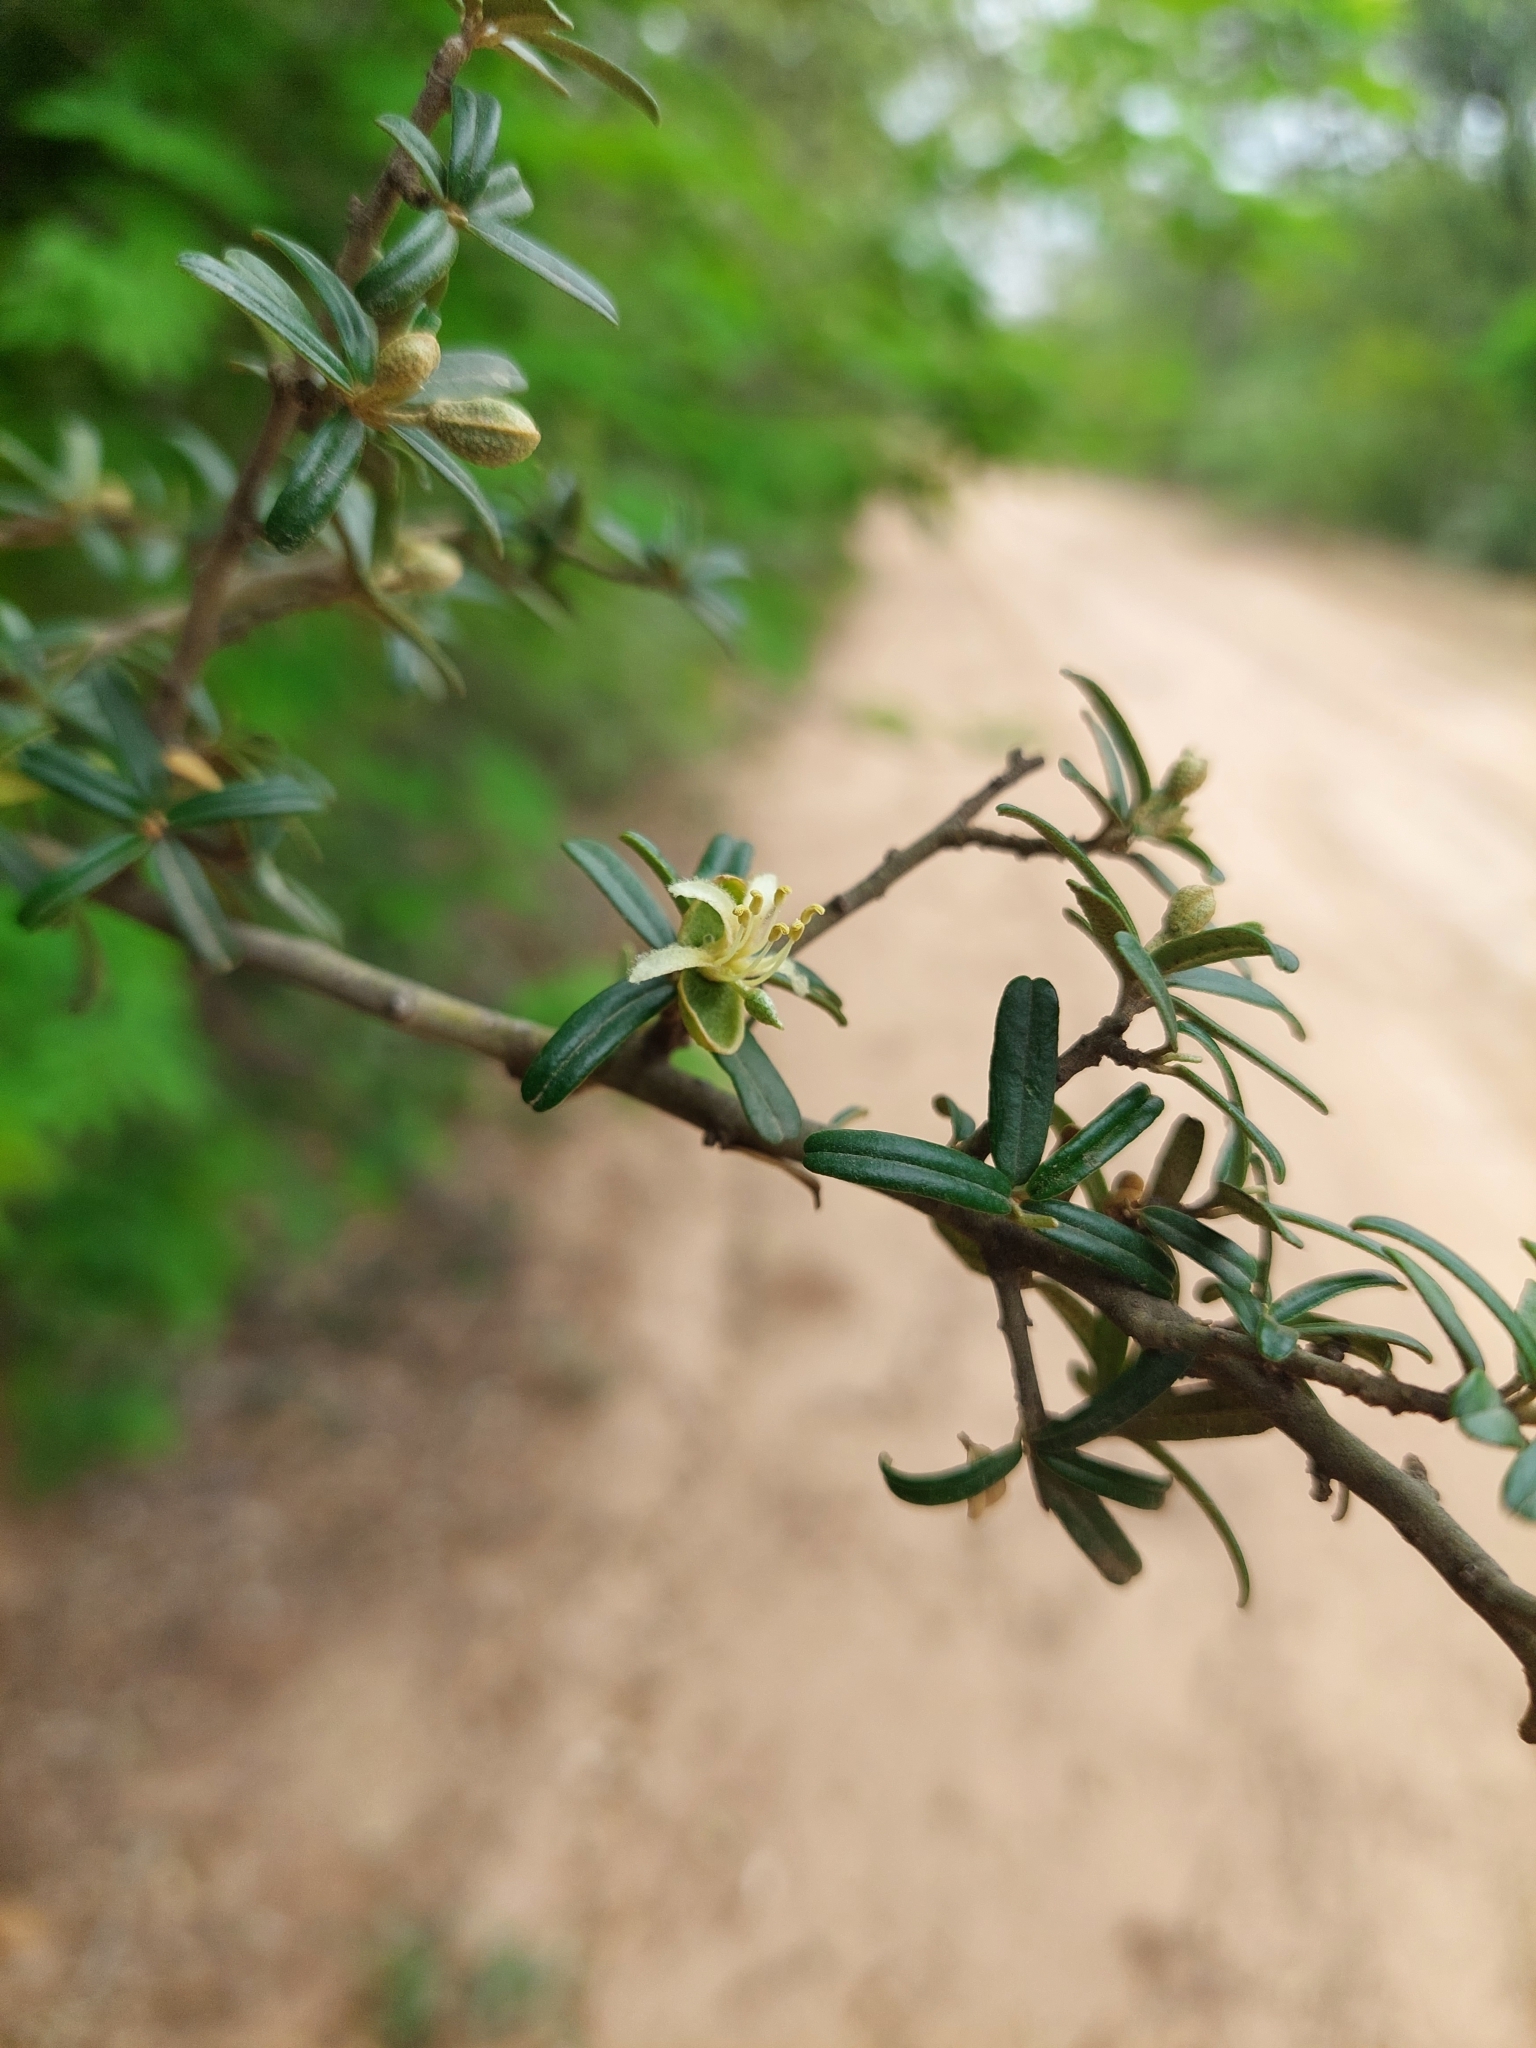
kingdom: Plantae
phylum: Tracheophyta
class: Magnoliopsida
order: Brassicales
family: Capparaceae
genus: Atamisquea
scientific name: Atamisquea emarginata
